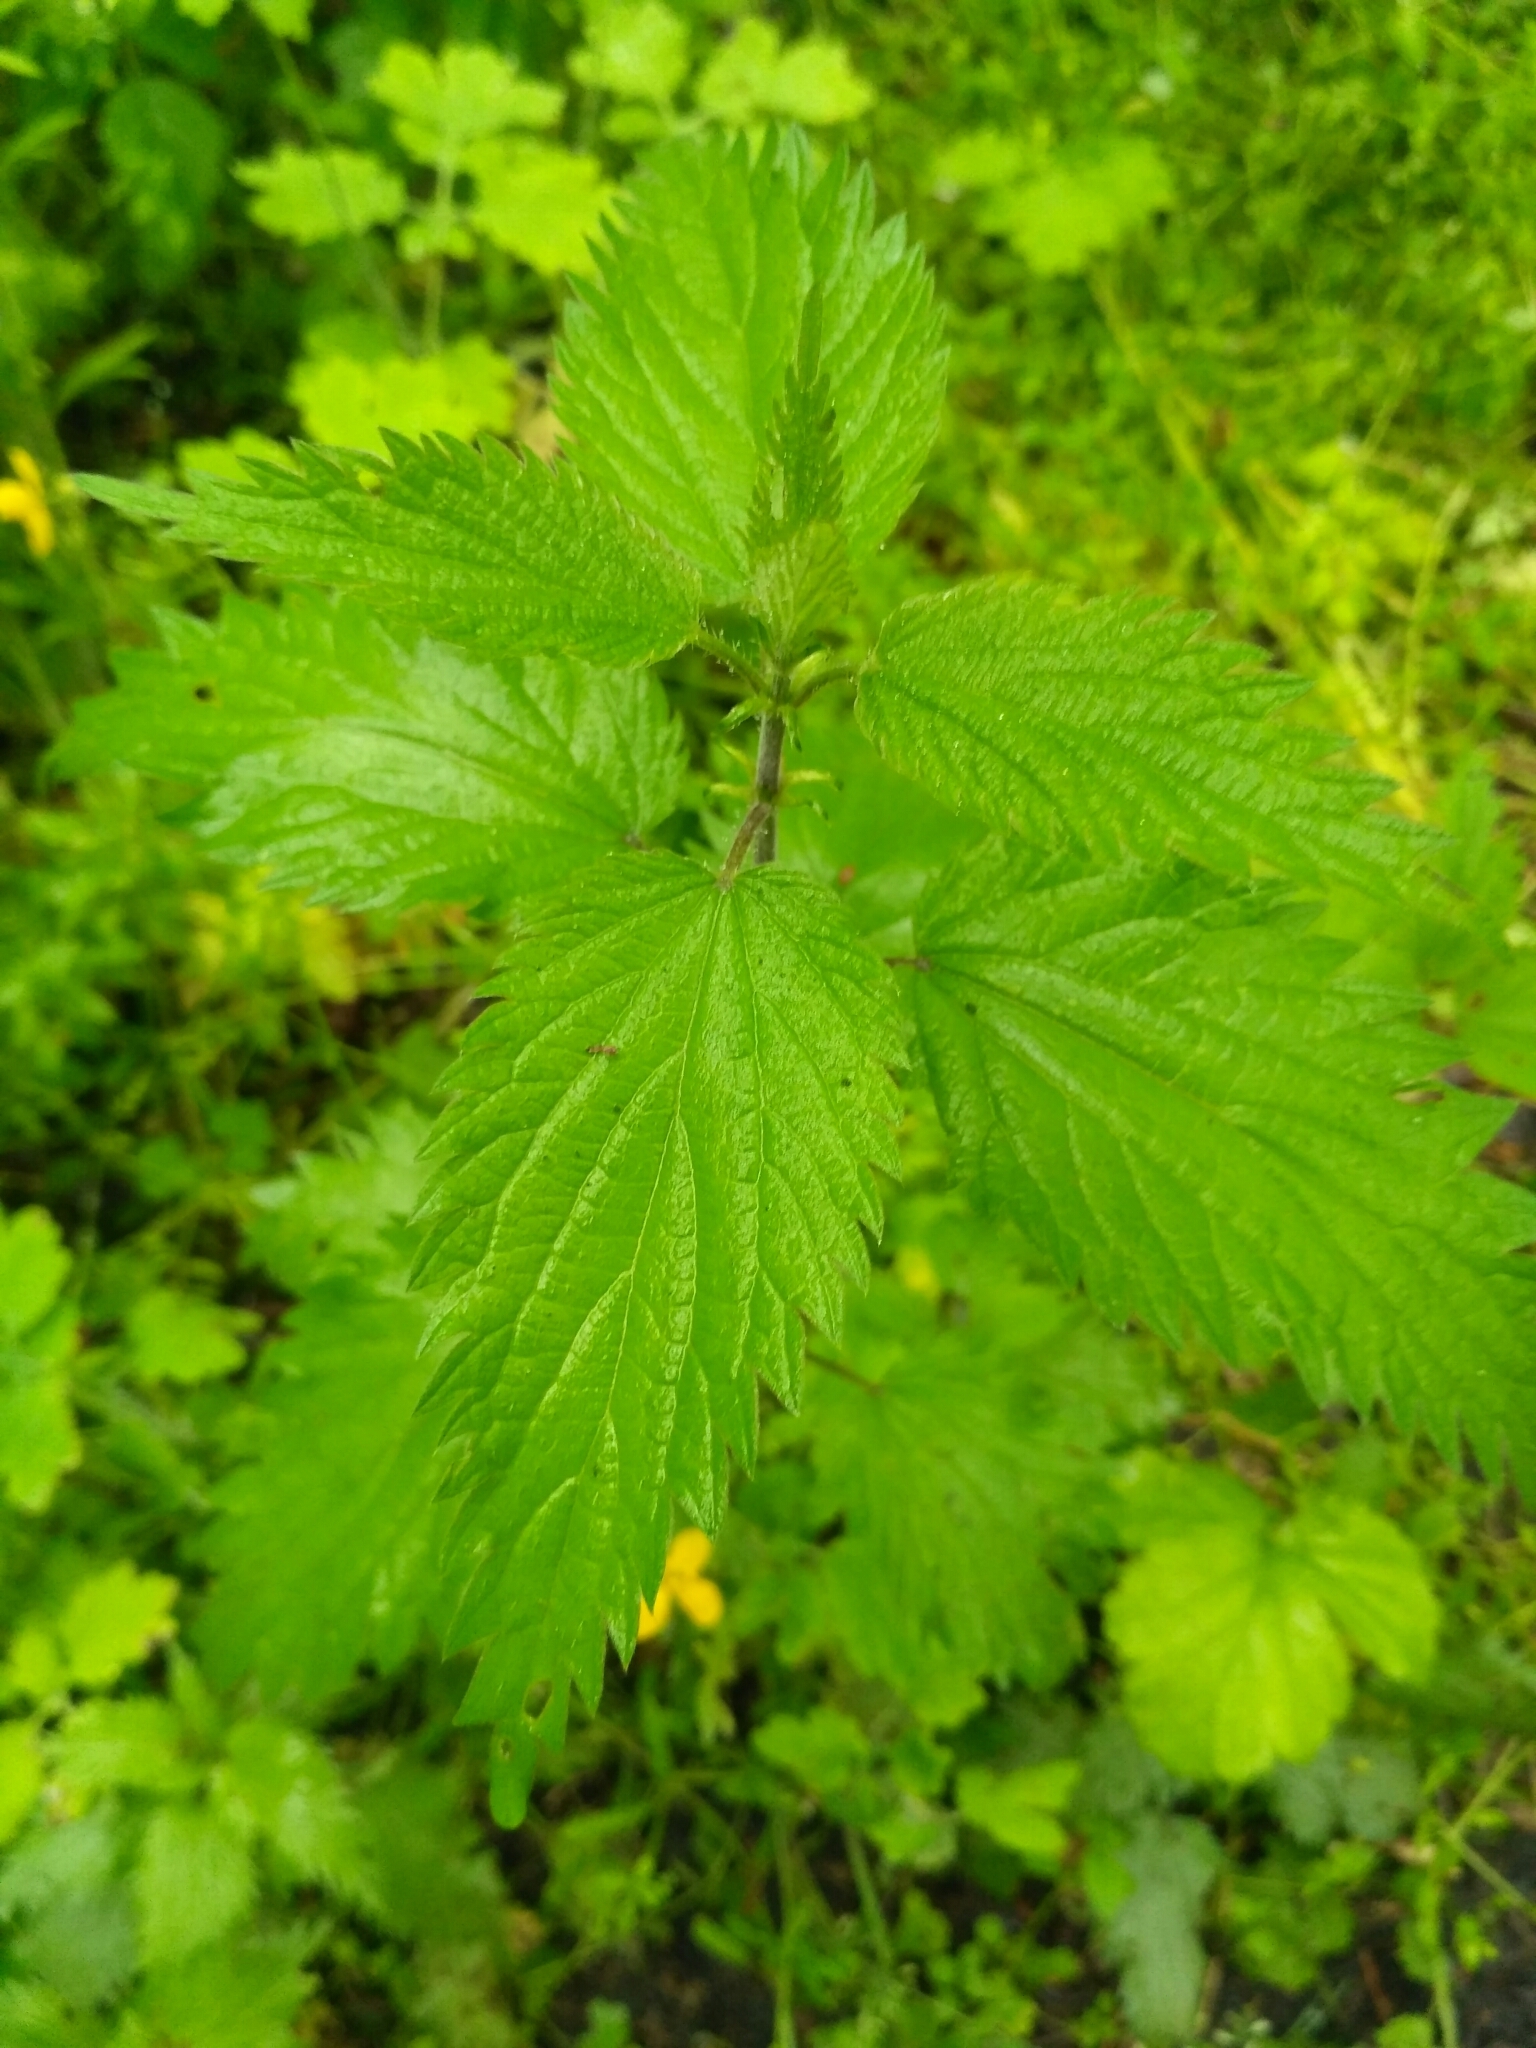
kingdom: Plantae
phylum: Tracheophyta
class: Magnoliopsida
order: Rosales
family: Urticaceae
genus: Urtica
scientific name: Urtica dioica
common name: Common nettle
